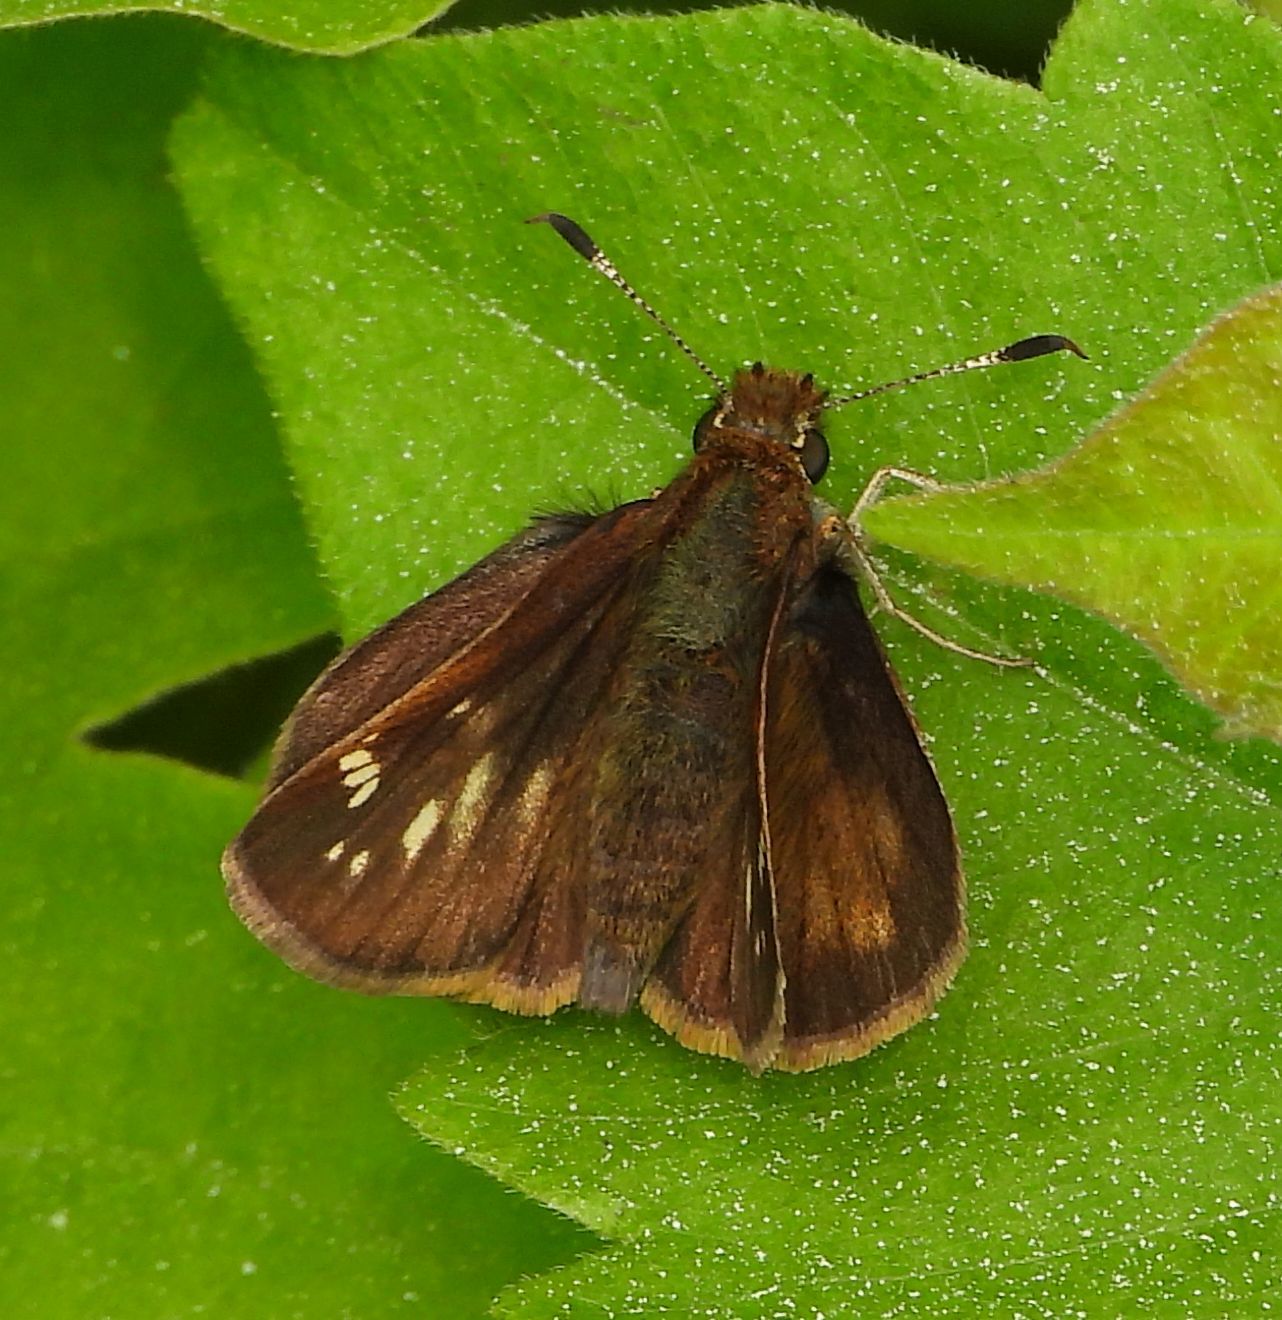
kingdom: Animalia
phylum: Arthropoda
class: Insecta
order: Lepidoptera
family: Hesperiidae
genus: Lon
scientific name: Lon hobomok
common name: Hobomok skipper
